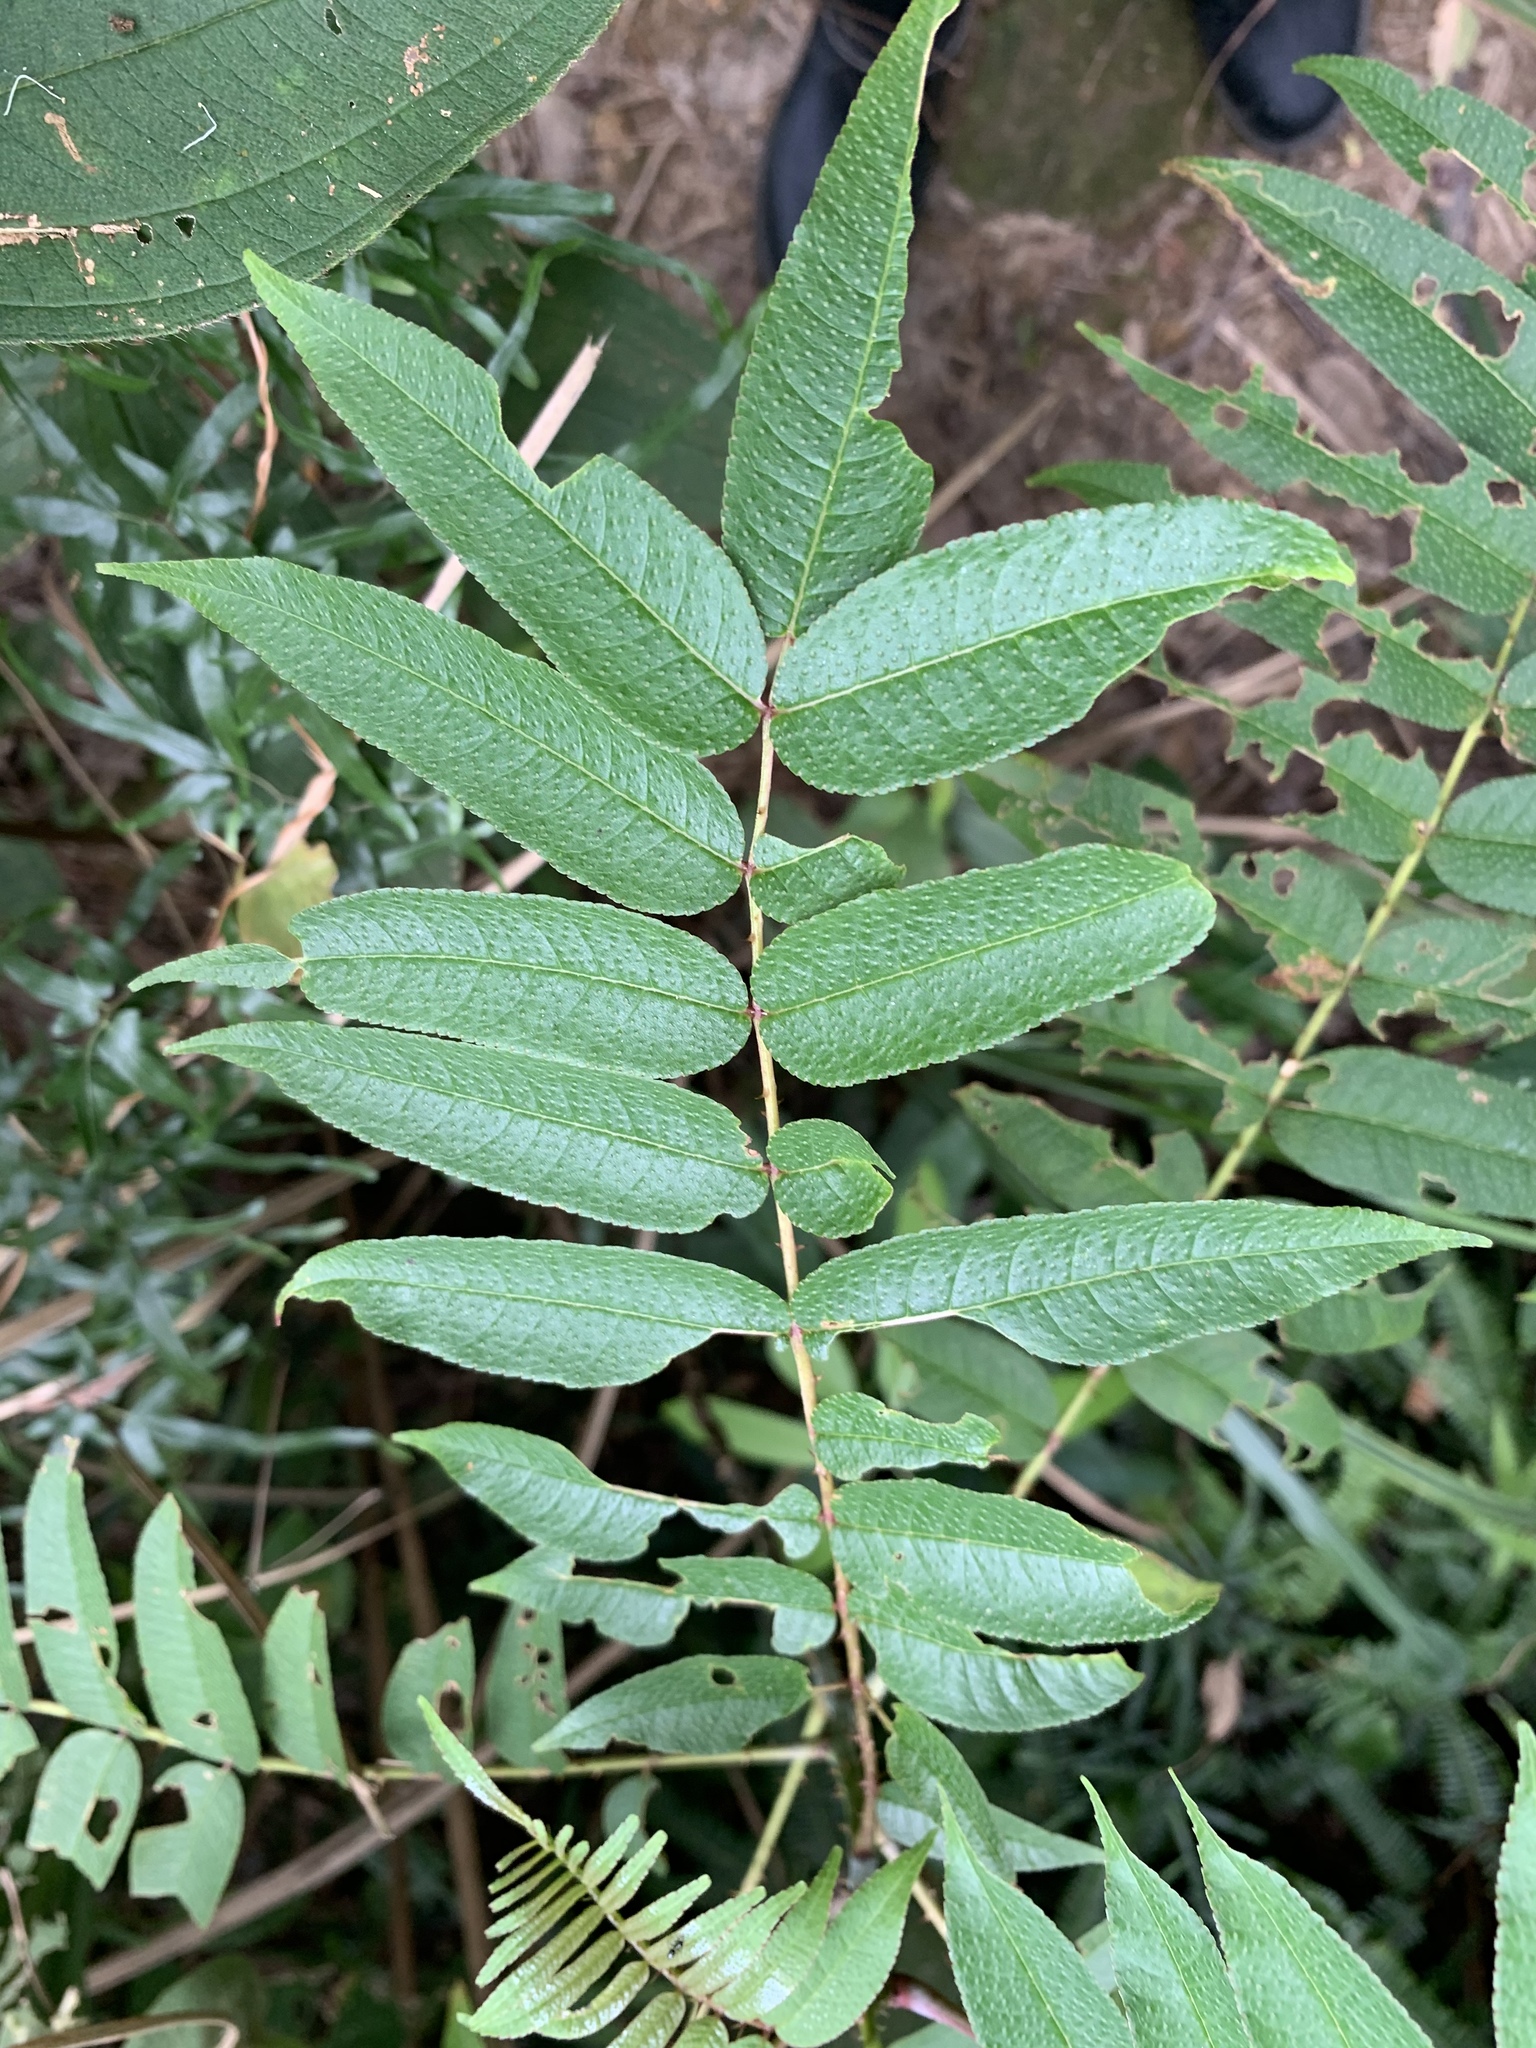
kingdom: Plantae
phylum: Tracheophyta
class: Magnoliopsida
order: Sapindales
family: Rutaceae
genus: Zanthoxylum
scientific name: Zanthoxylum ailanthoides
